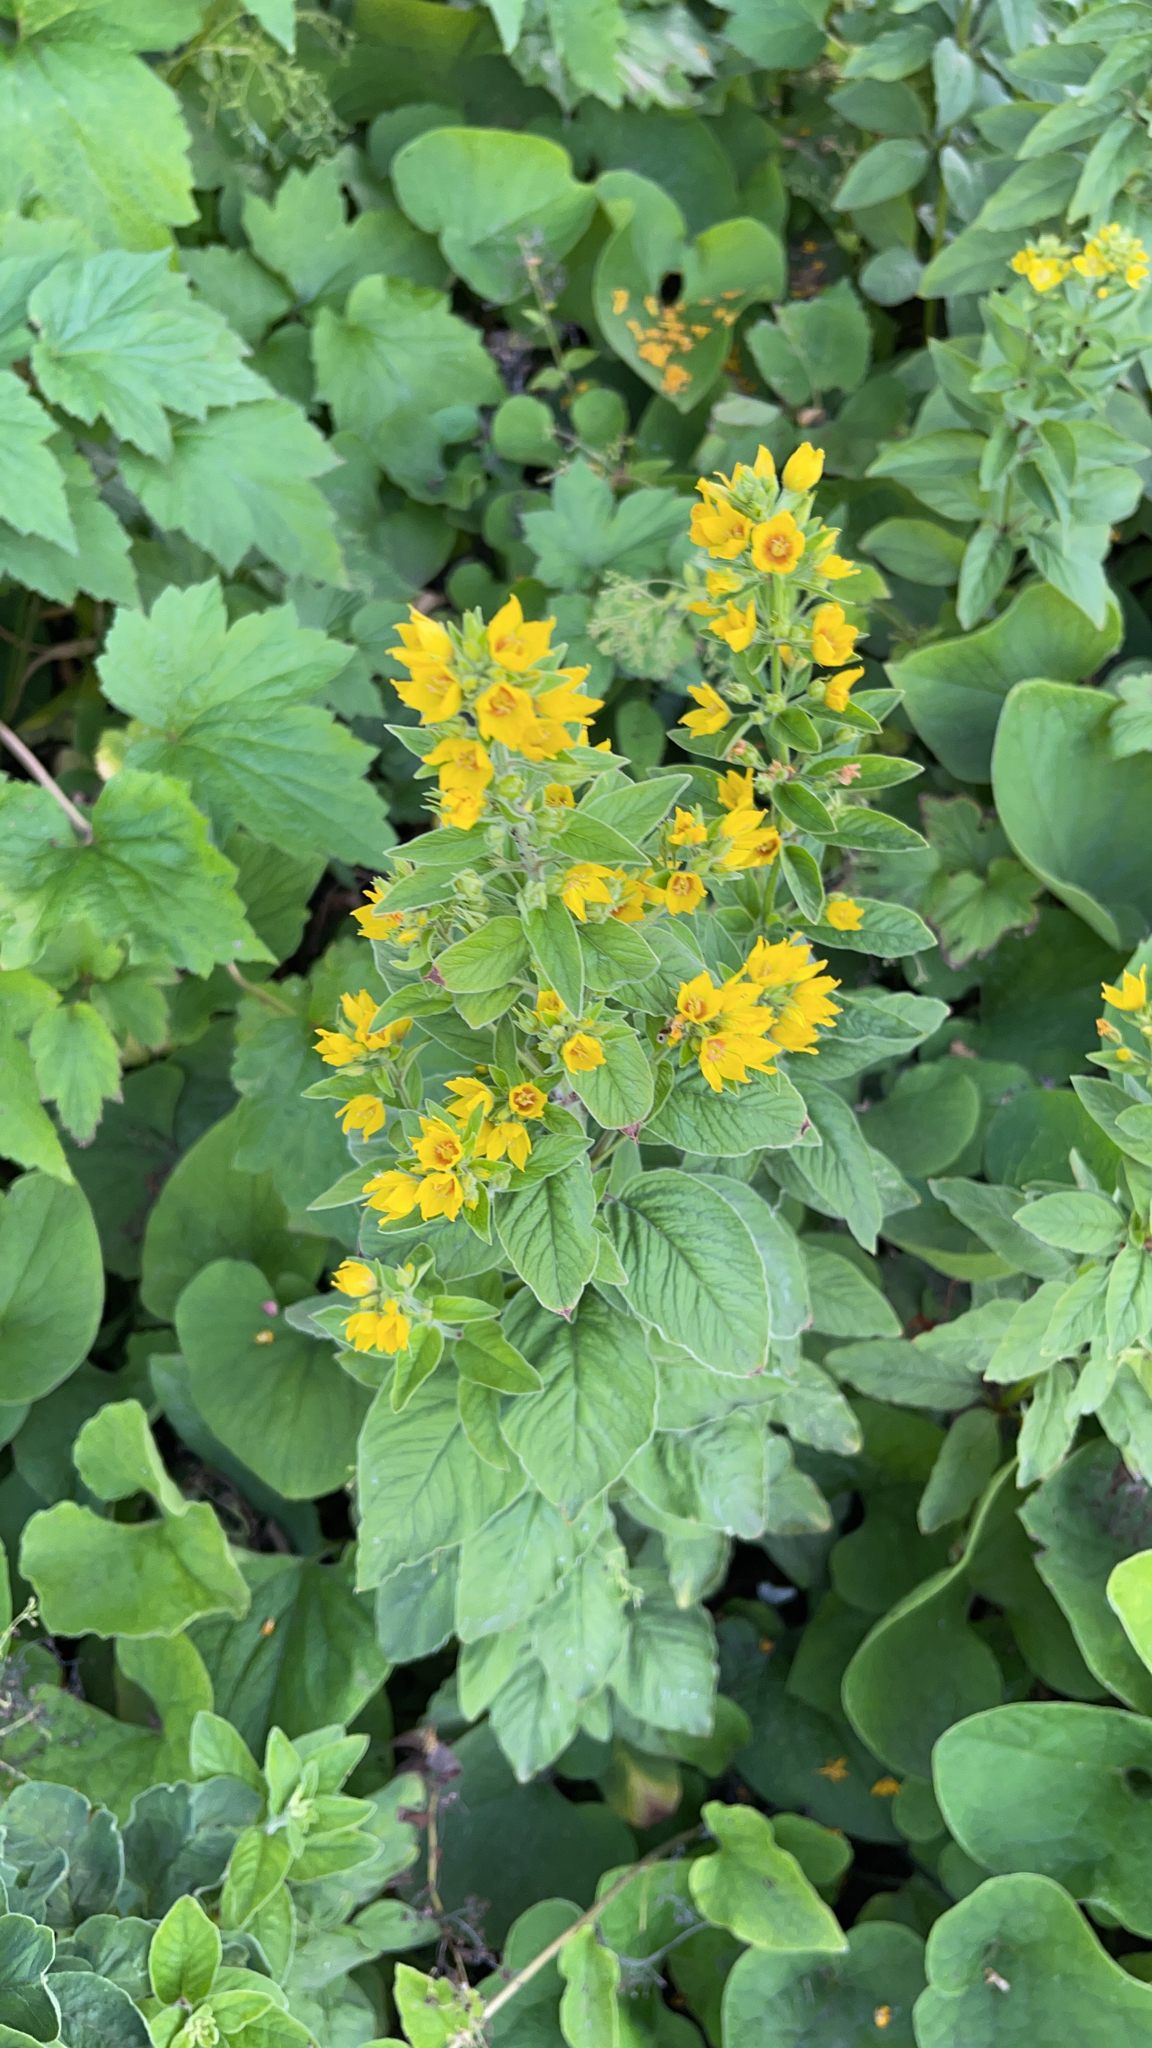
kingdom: Plantae
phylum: Tracheophyta
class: Magnoliopsida
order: Ericales
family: Primulaceae
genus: Lysimachia
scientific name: Lysimachia punctata
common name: Dotted loosestrife
